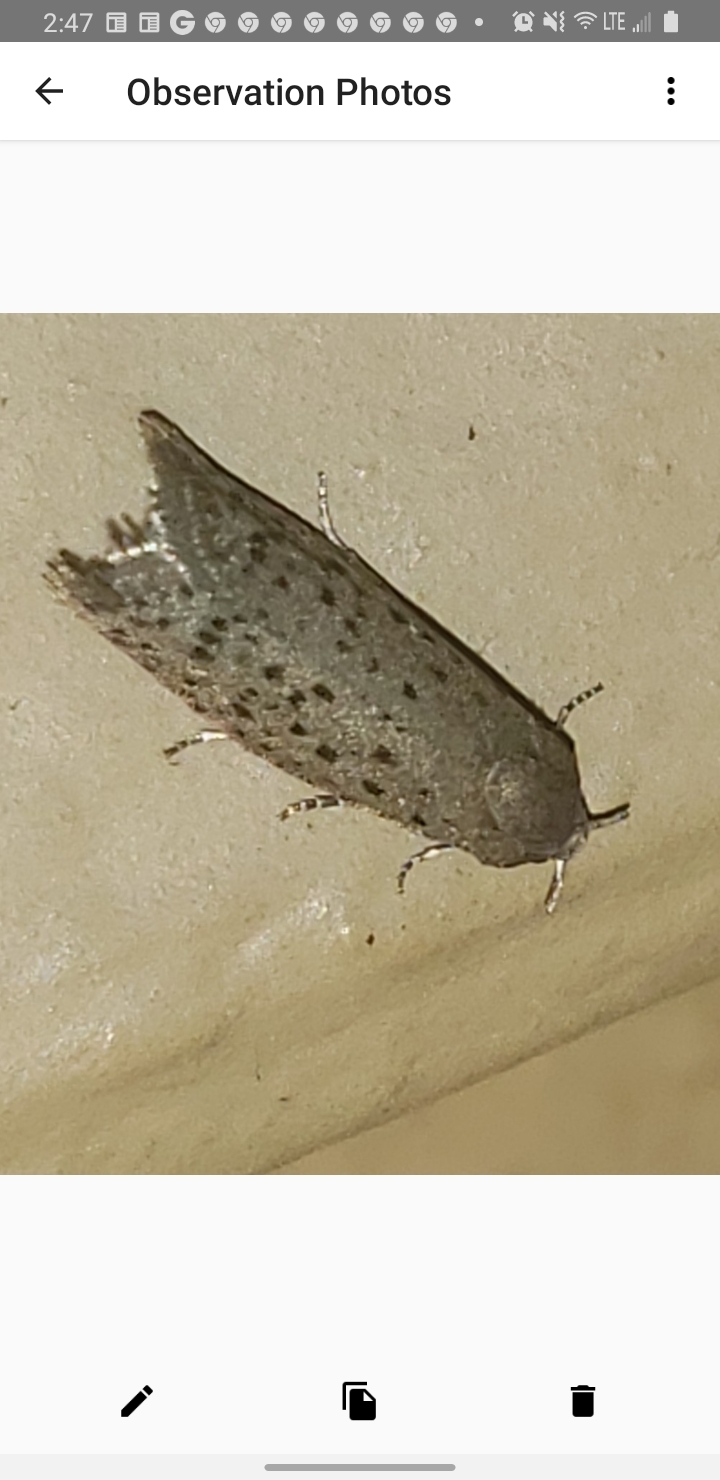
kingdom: Animalia
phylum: Arthropoda
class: Insecta
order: Lepidoptera
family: Galacticidae
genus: Homadaula
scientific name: Homadaula anisocentra
